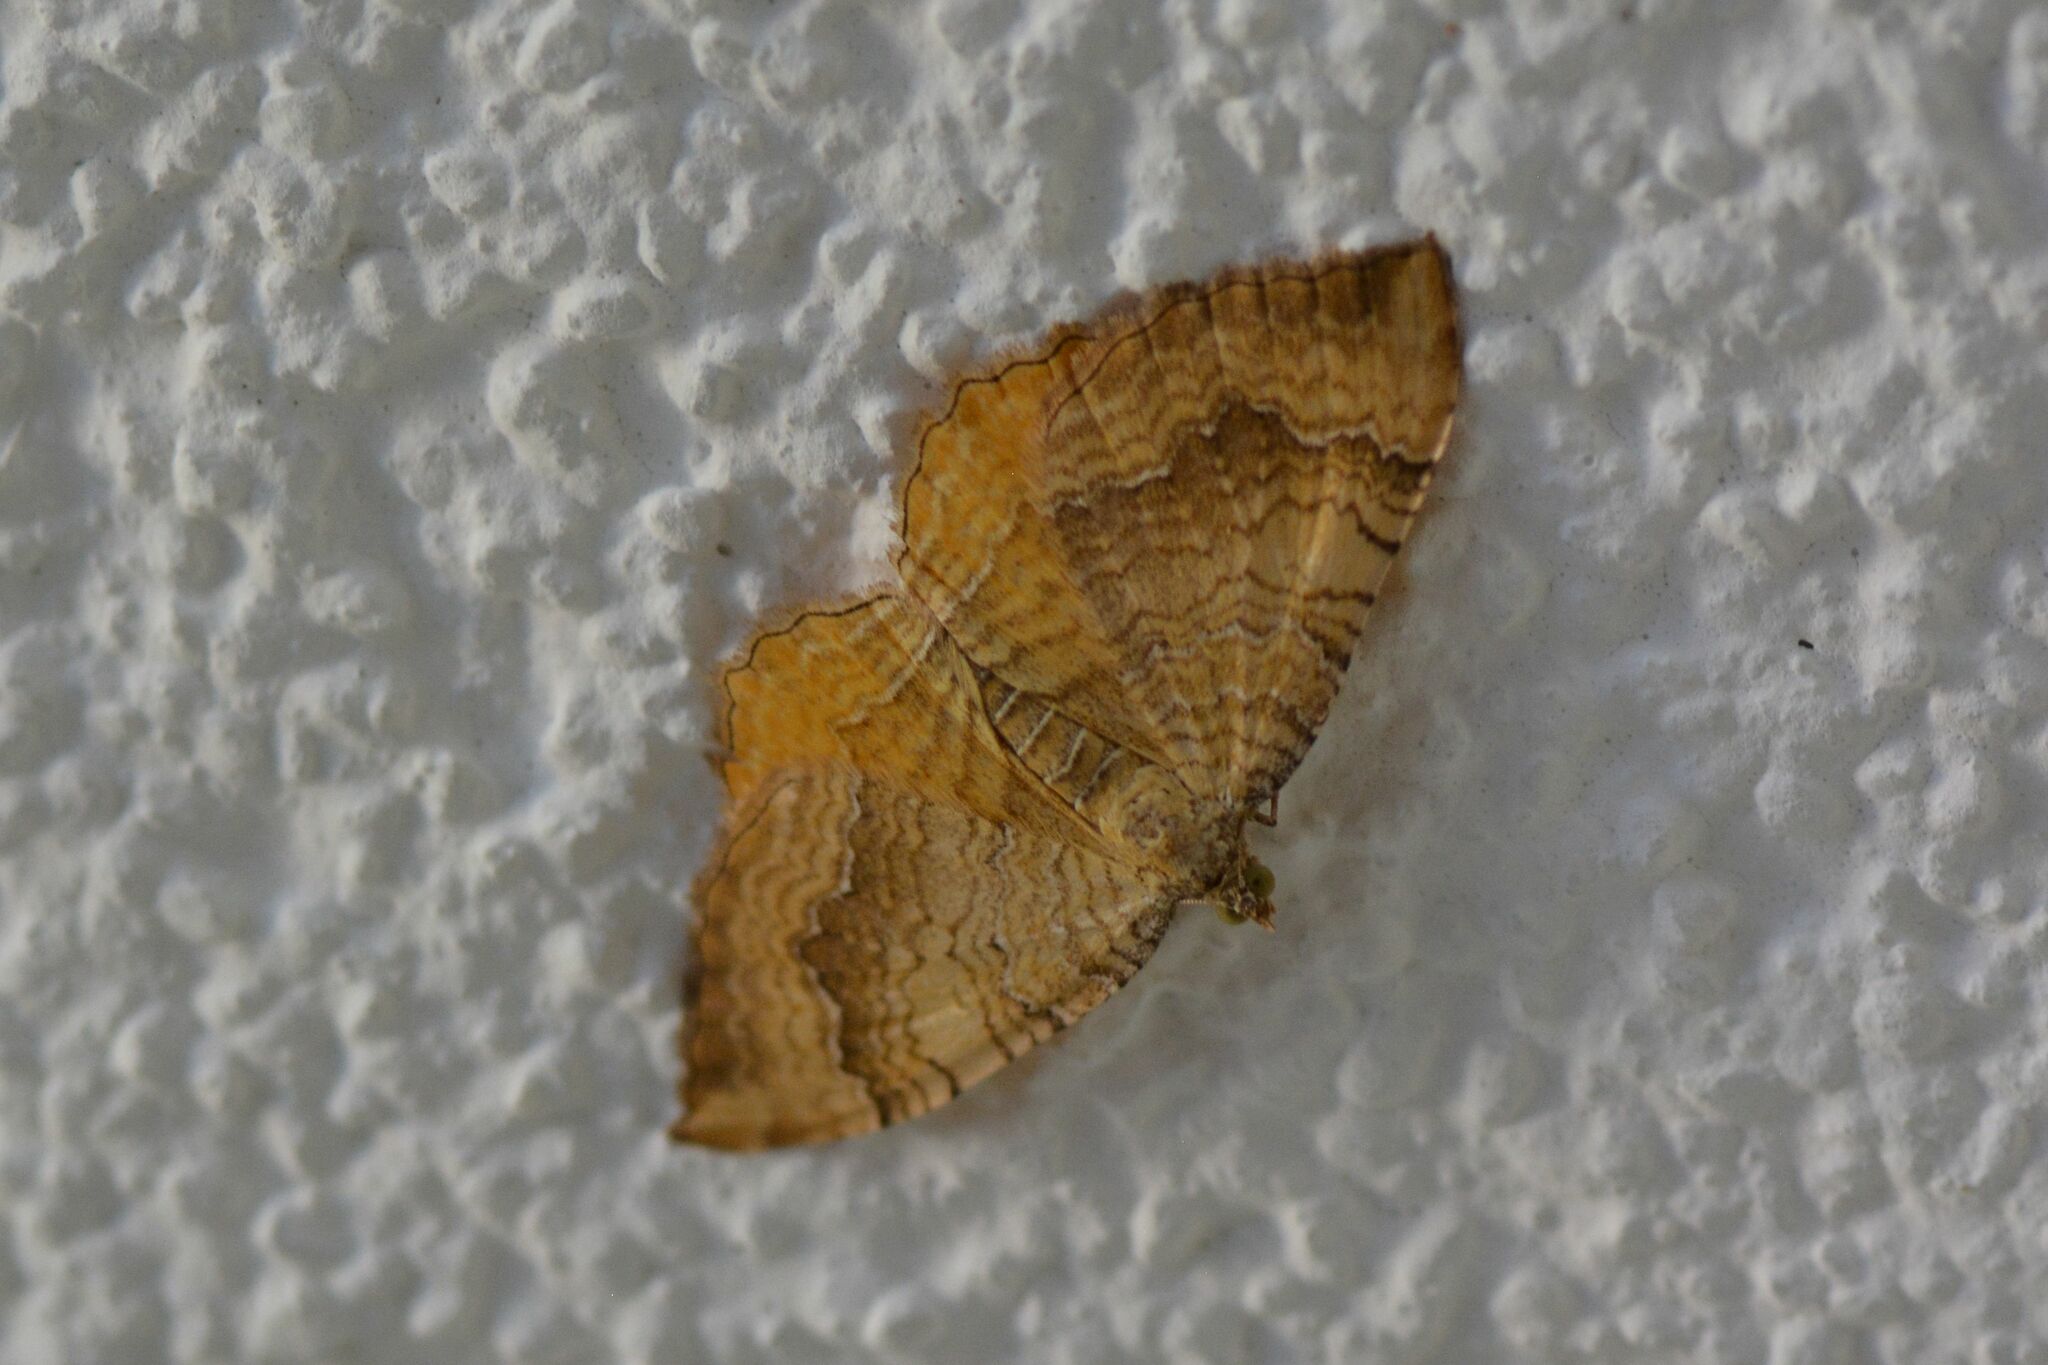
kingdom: Animalia
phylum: Arthropoda
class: Insecta
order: Lepidoptera
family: Geometridae
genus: Camptogramma
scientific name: Camptogramma bilineata
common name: Yellow shell
